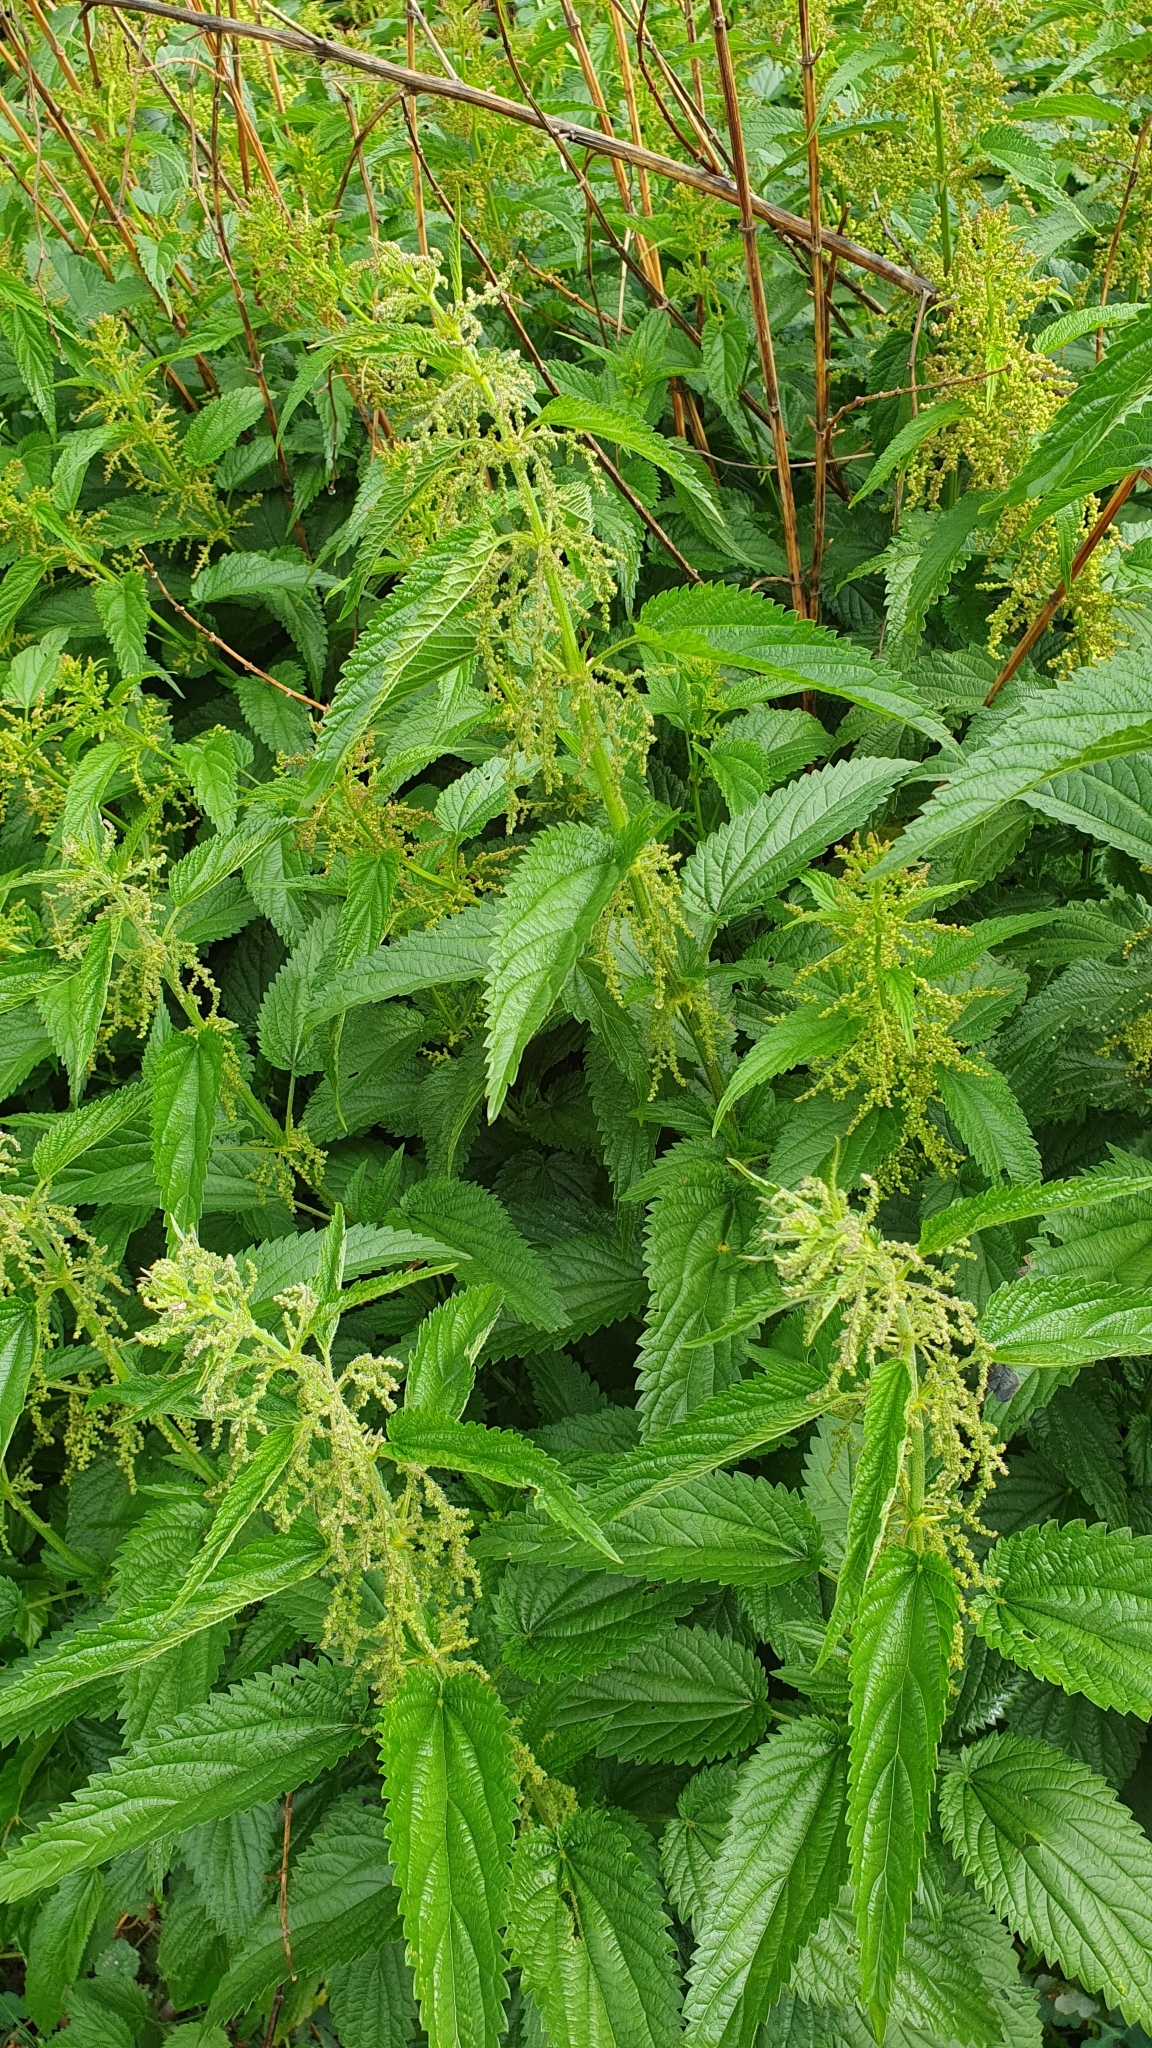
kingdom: Plantae
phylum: Tracheophyta
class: Magnoliopsida
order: Rosales
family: Urticaceae
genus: Urtica
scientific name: Urtica dioica
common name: Common nettle
